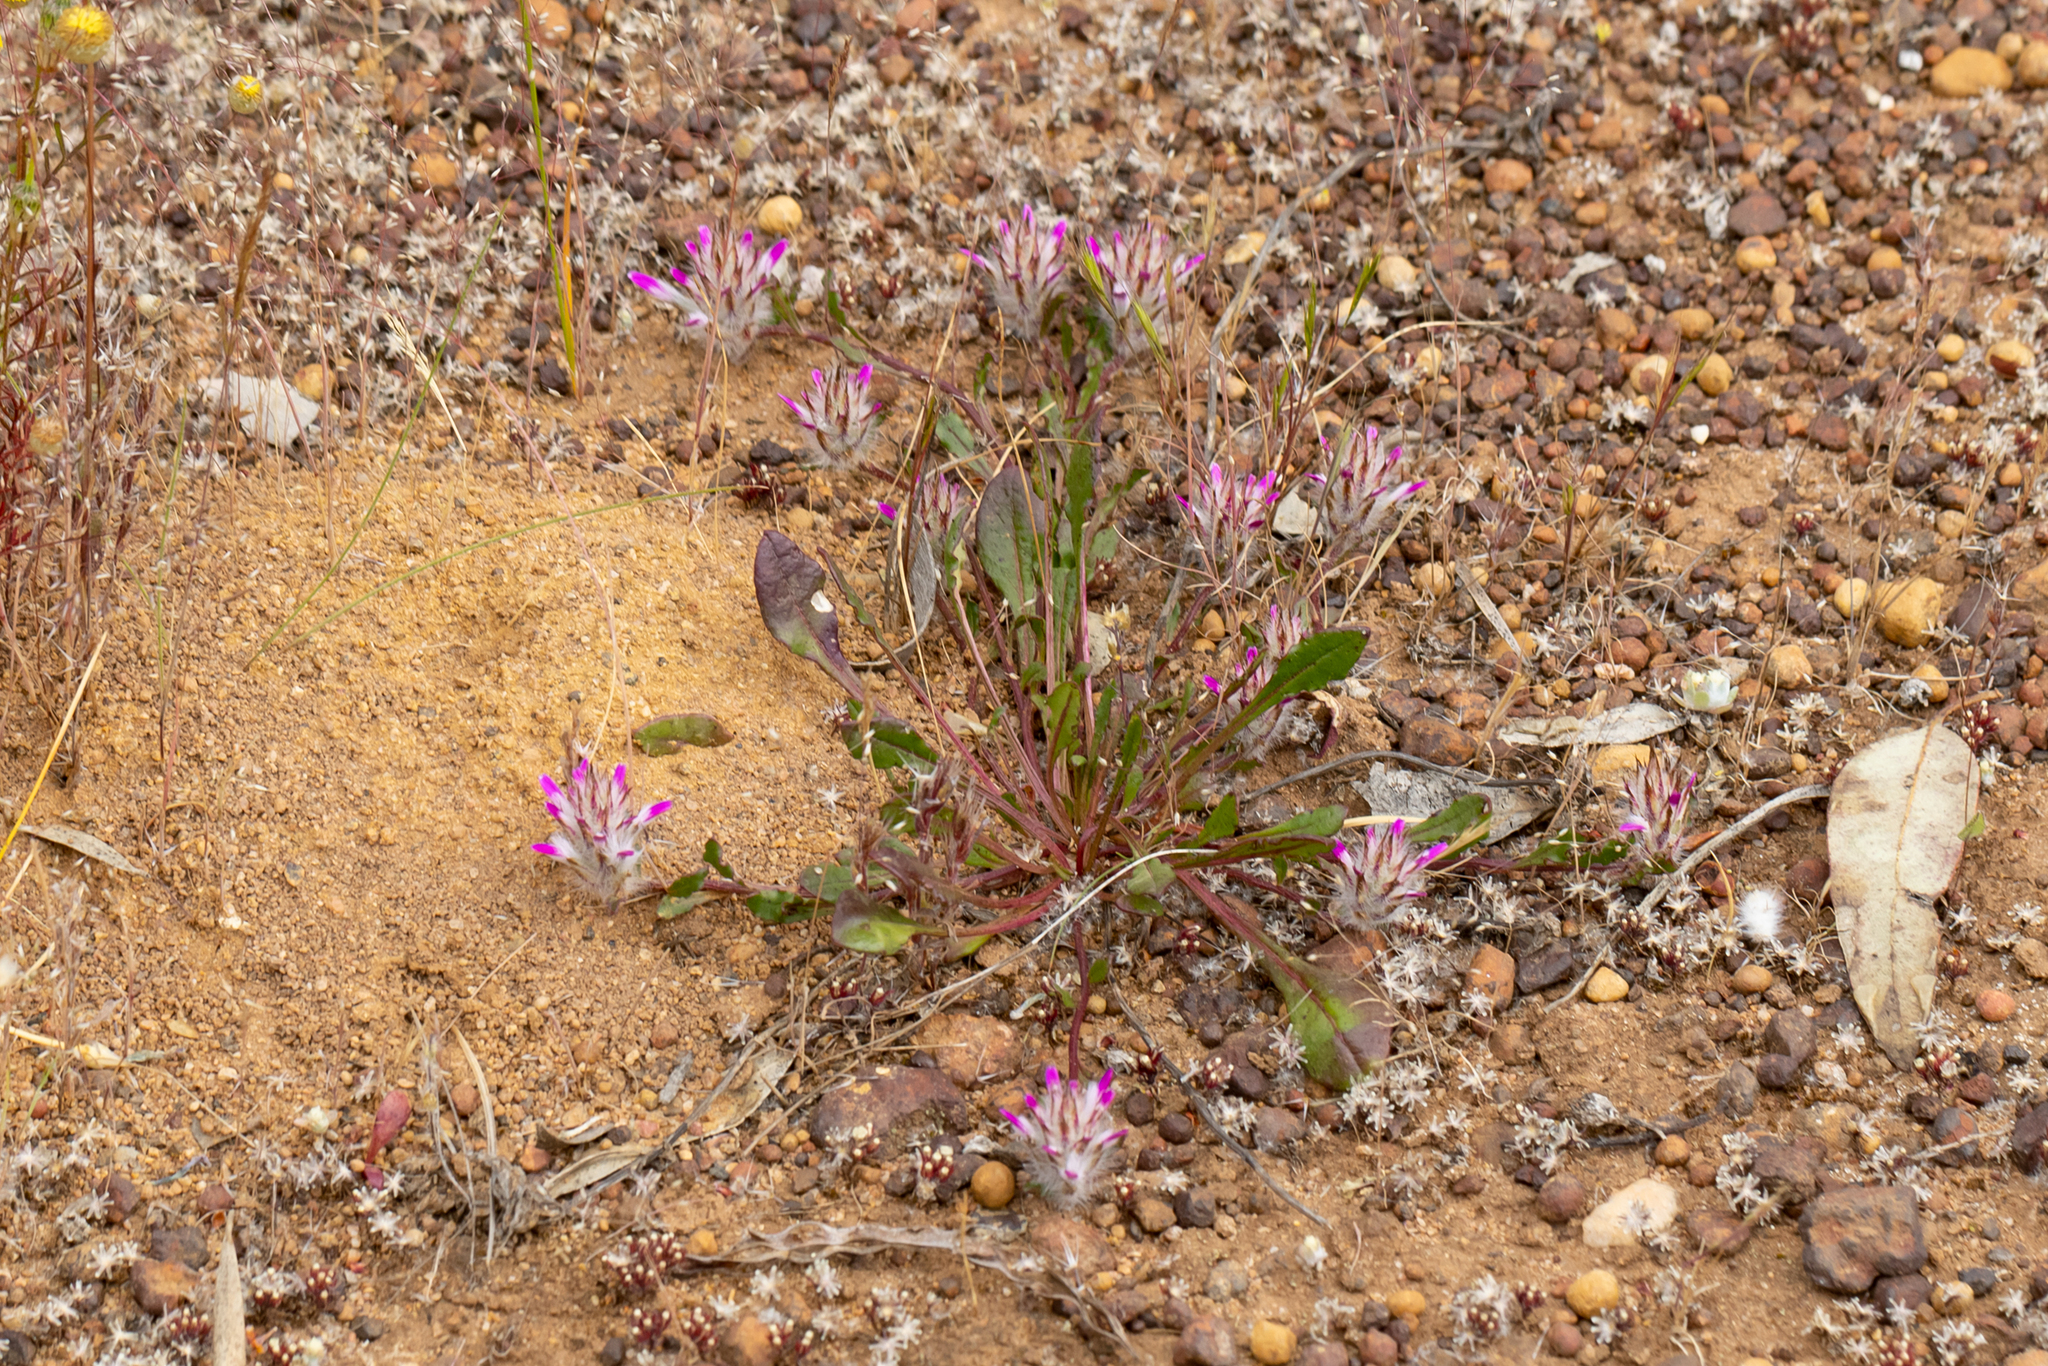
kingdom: Plantae
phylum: Tracheophyta
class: Magnoliopsida
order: Caryophyllales
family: Amaranthaceae
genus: Ptilotus
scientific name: Ptilotus manglesii
